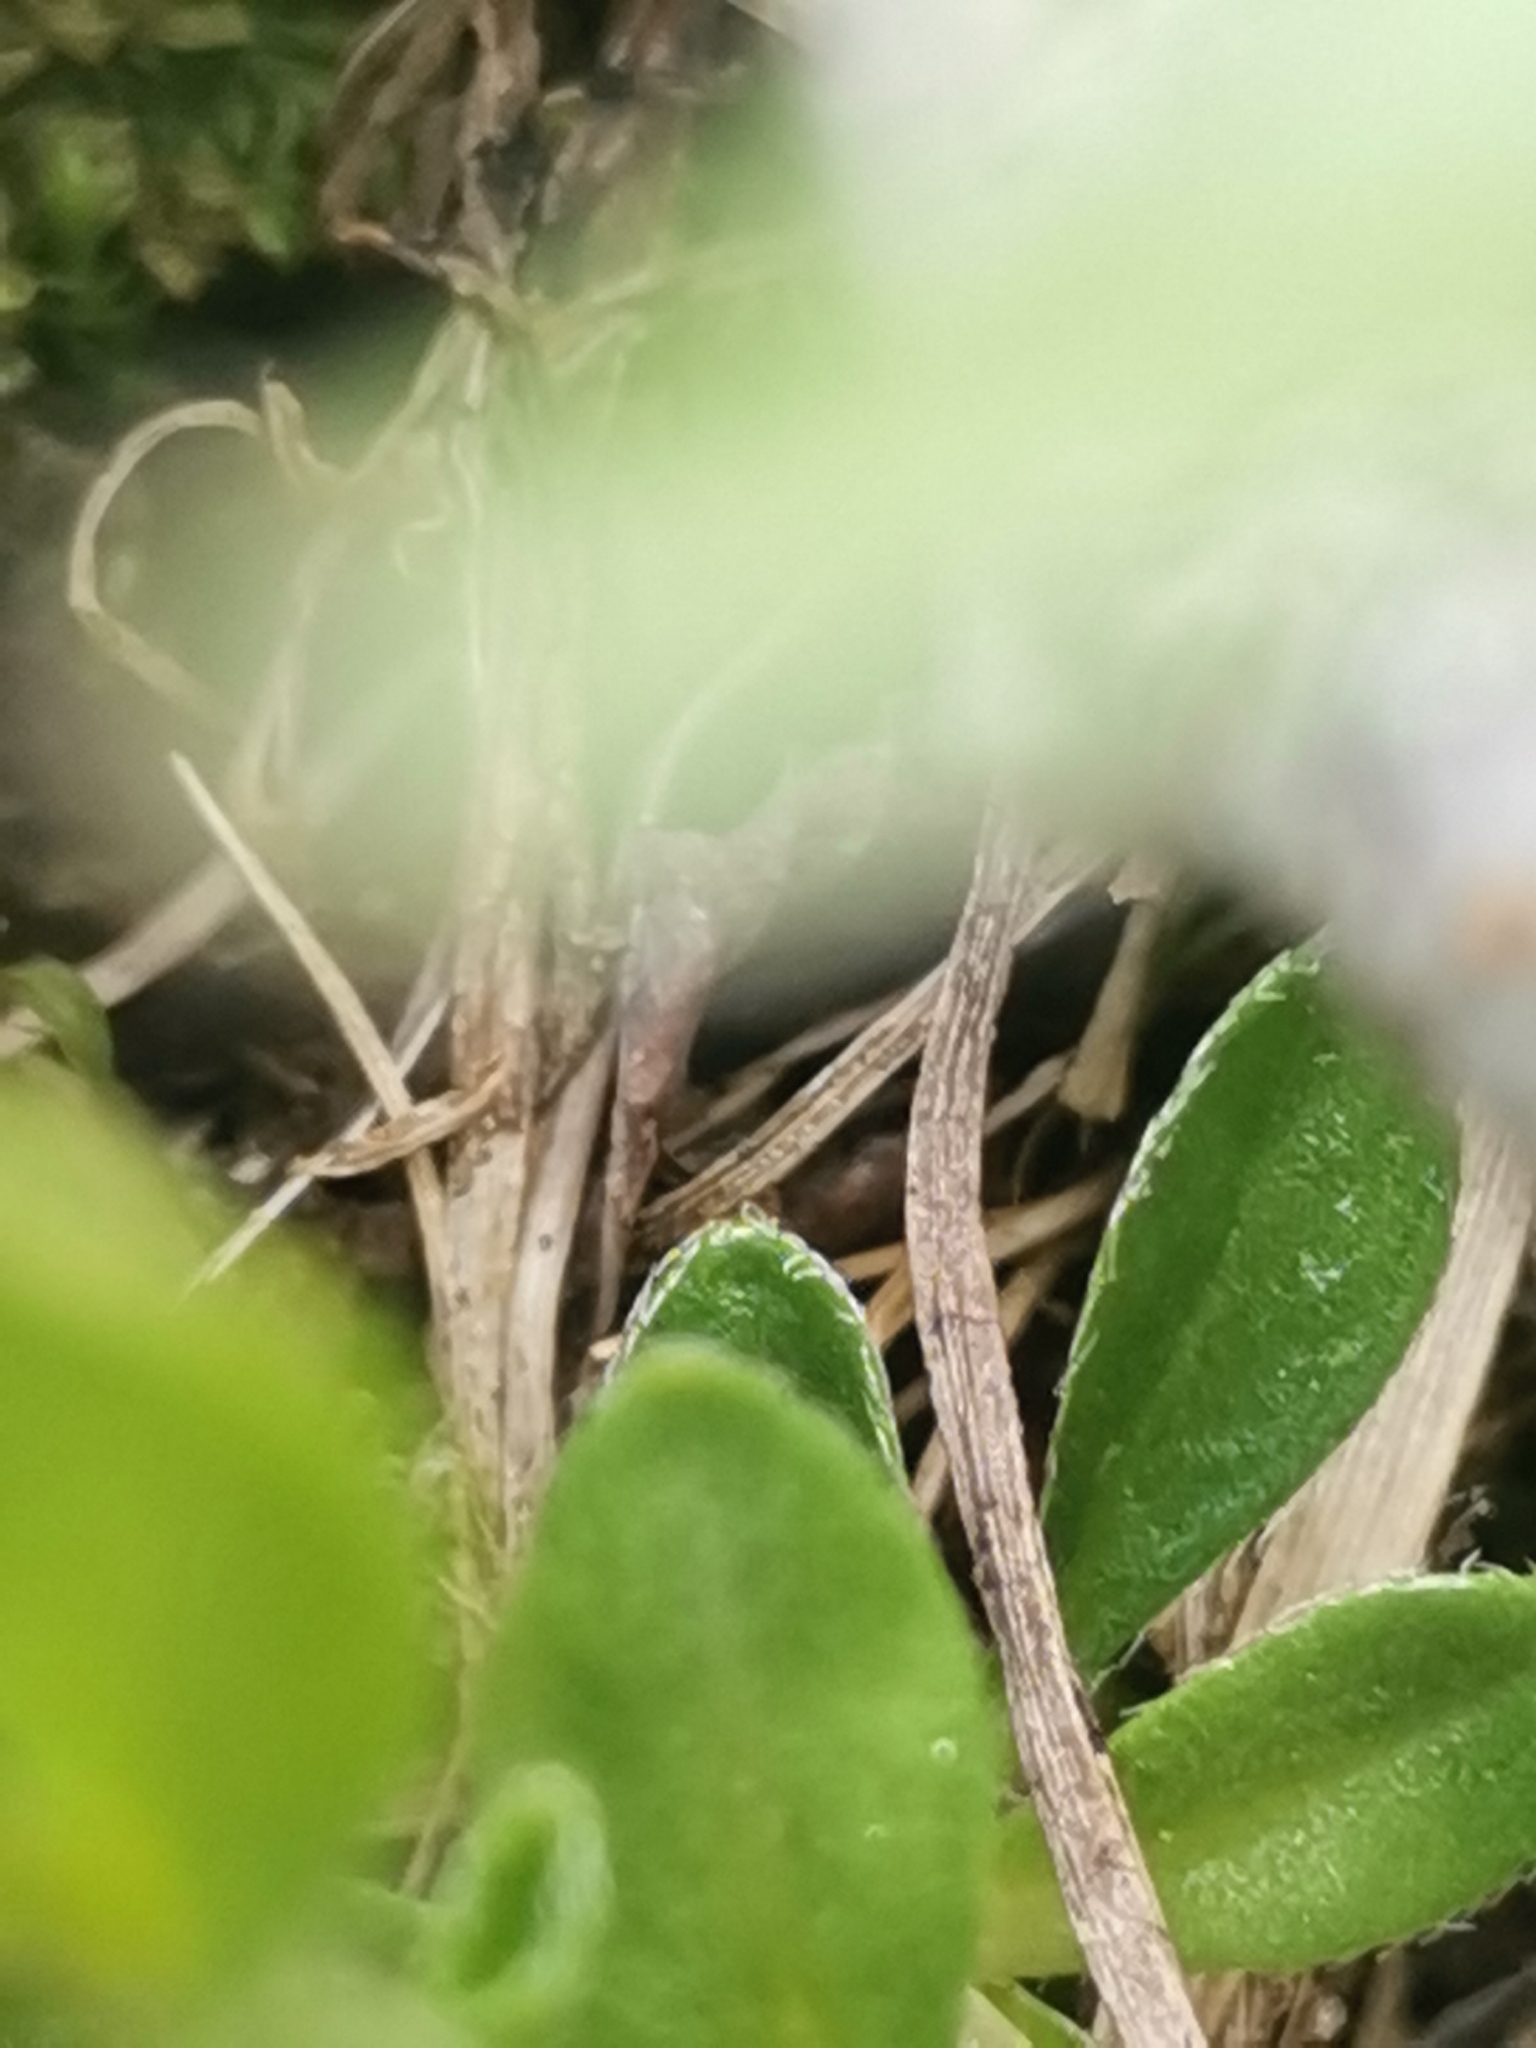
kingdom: Plantae
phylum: Tracheophyta
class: Magnoliopsida
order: Brassicales
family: Brassicaceae
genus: Arabis
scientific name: Arabis vochinensis
